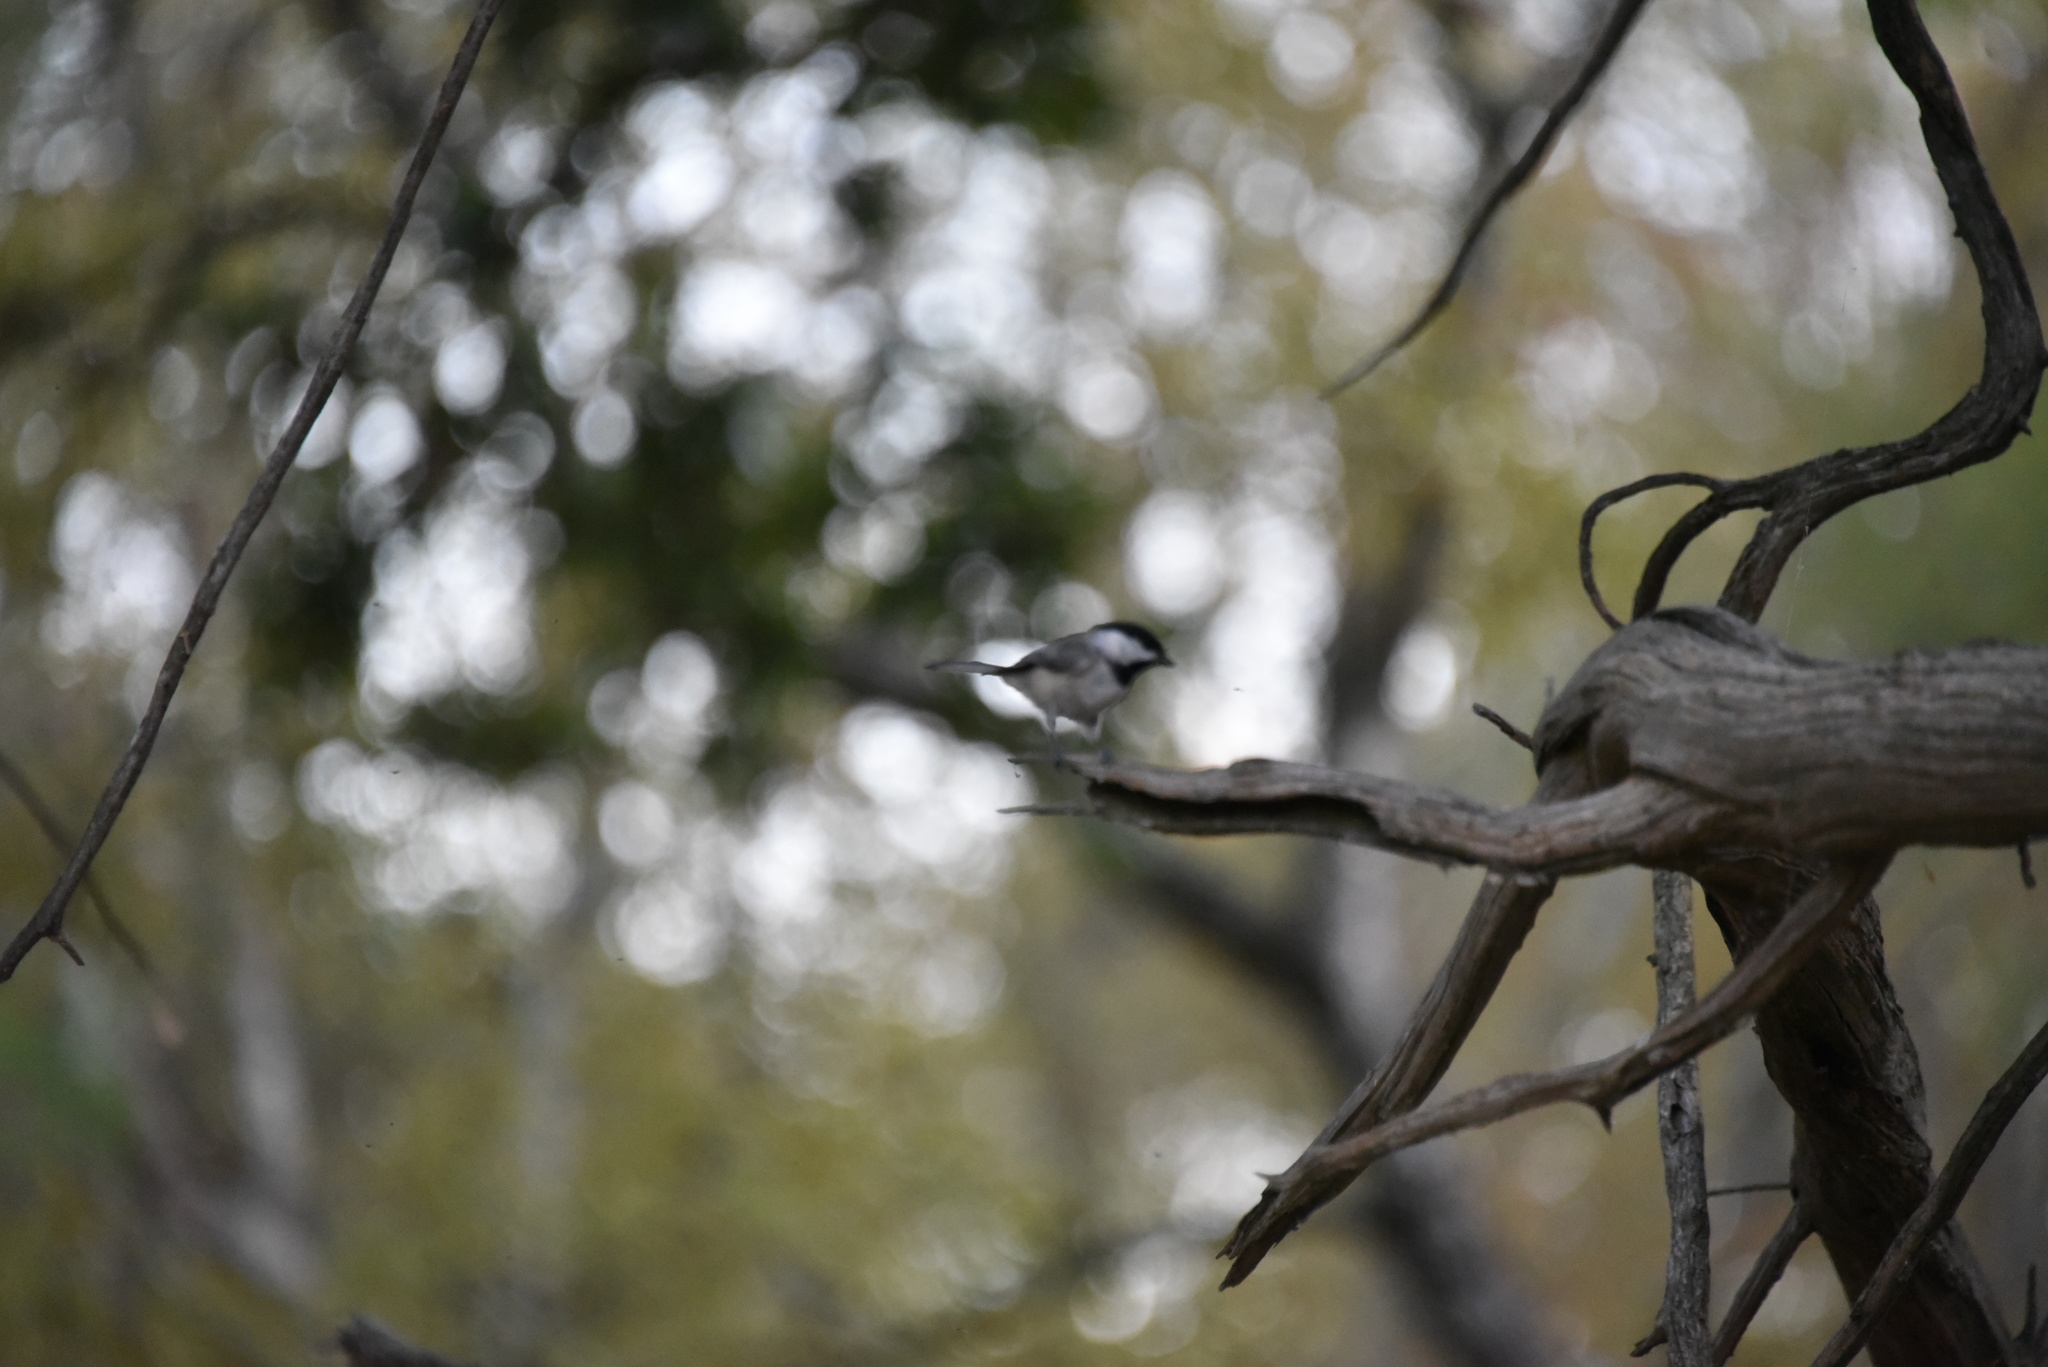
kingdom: Animalia
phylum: Chordata
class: Aves
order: Passeriformes
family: Paridae
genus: Poecile
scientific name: Poecile carolinensis
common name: Carolina chickadee
